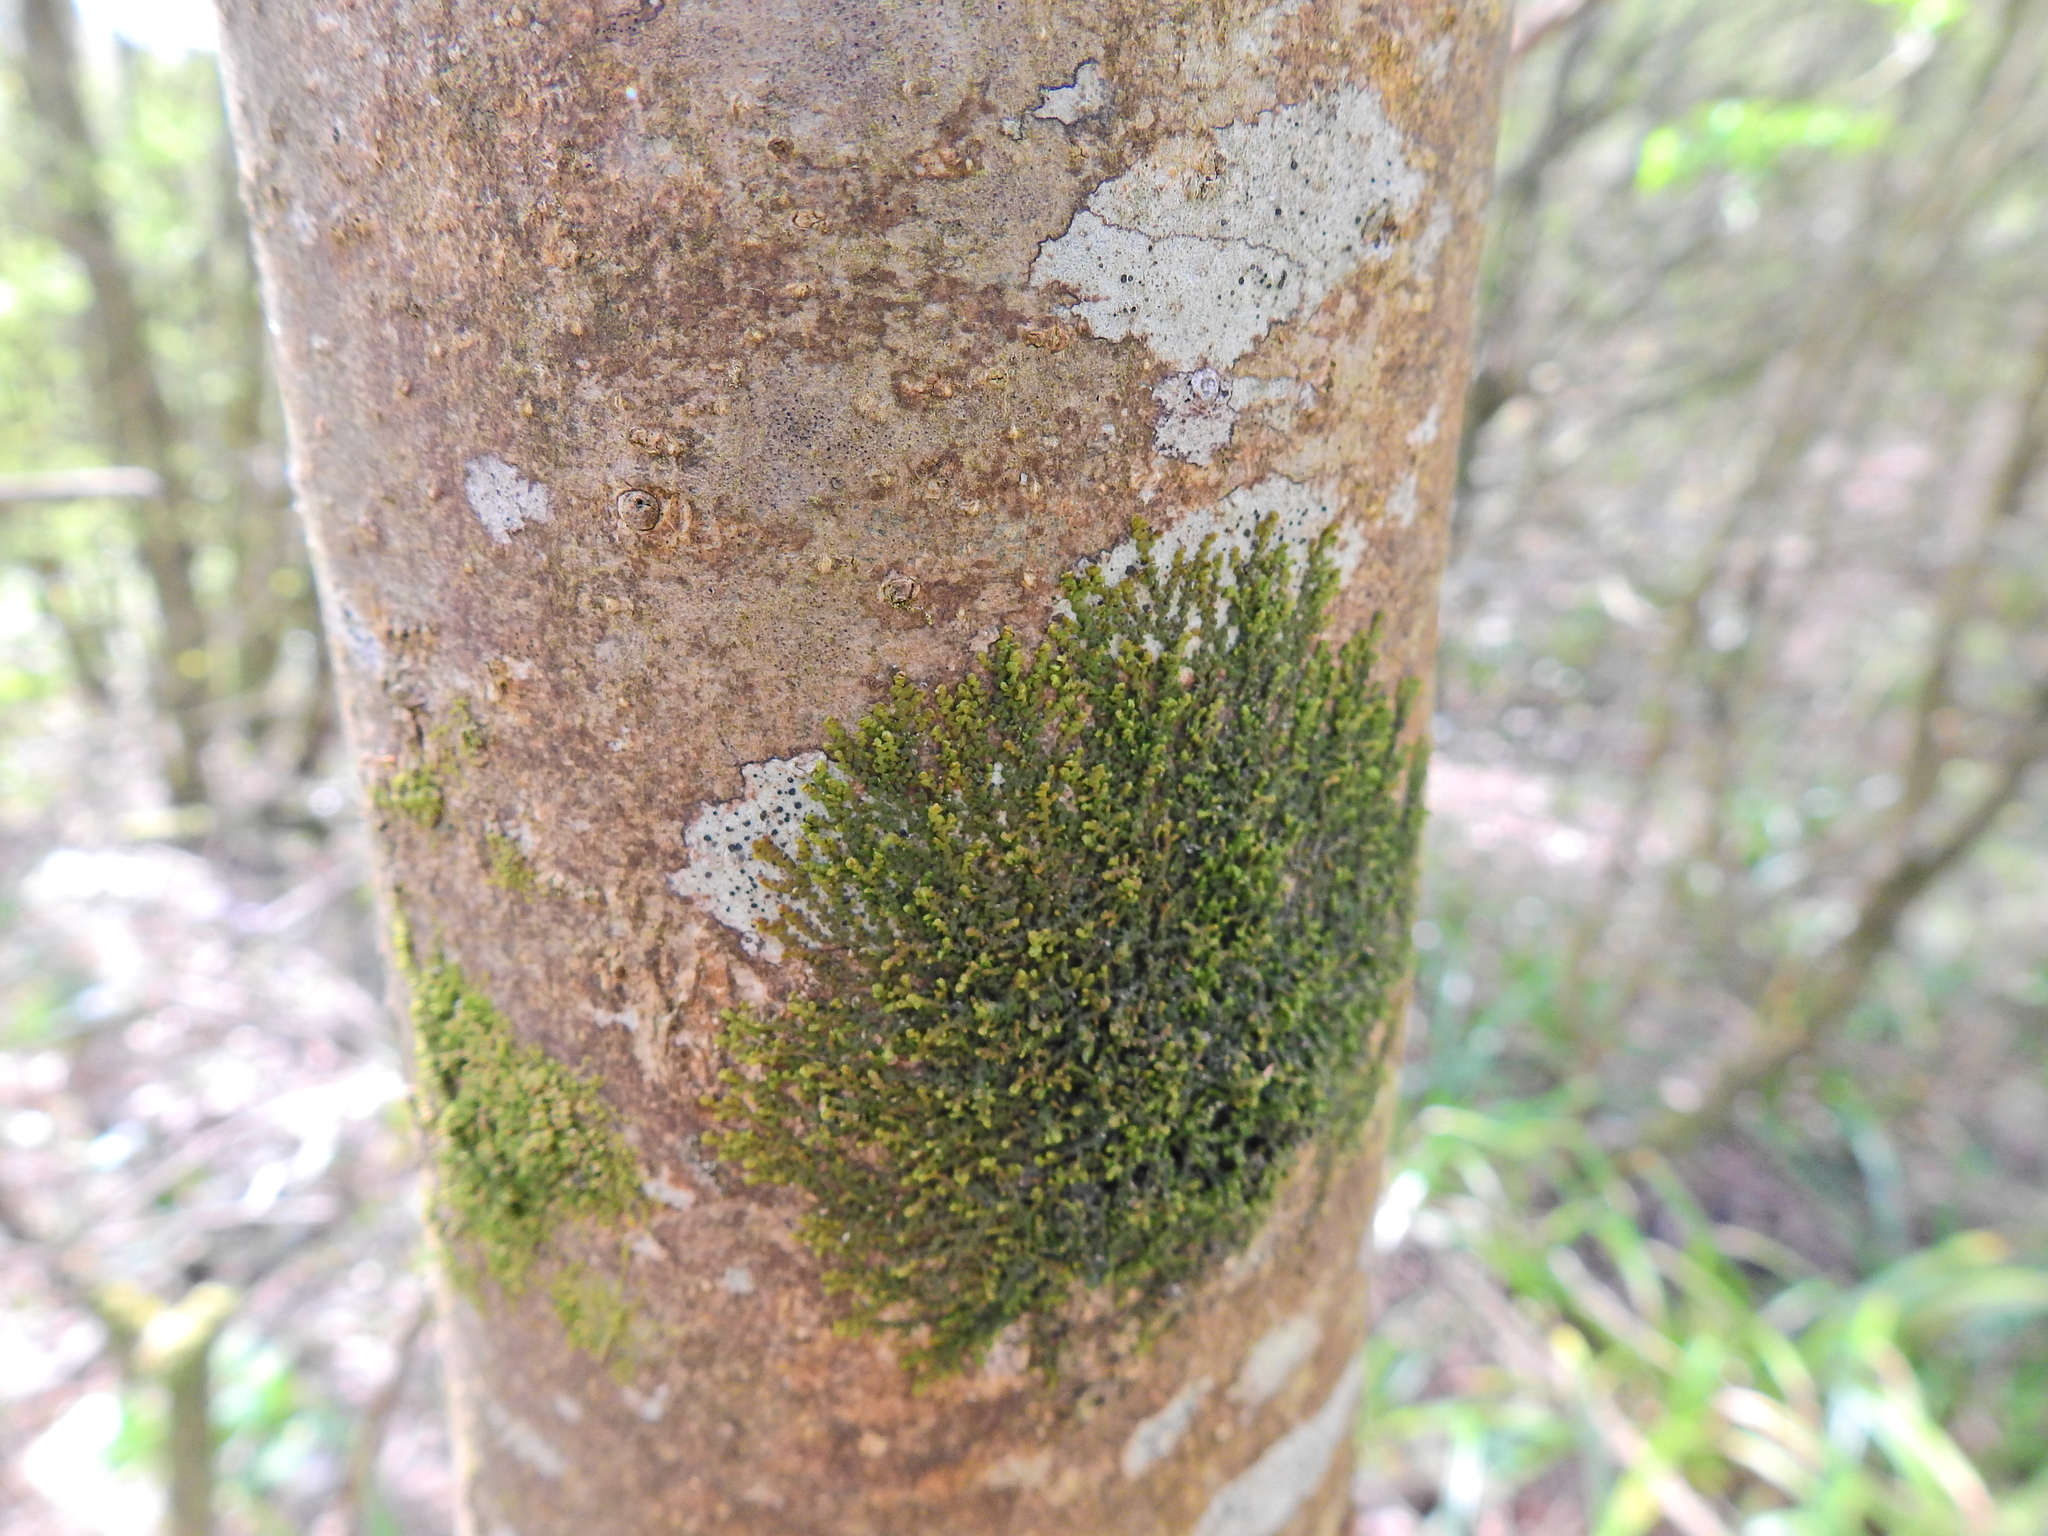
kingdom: Plantae
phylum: Marchantiophyta
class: Jungermanniopsida
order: Porellales
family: Frullaniaceae
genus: Frullania
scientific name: Frullania dilatata
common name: Dilated scalewort
